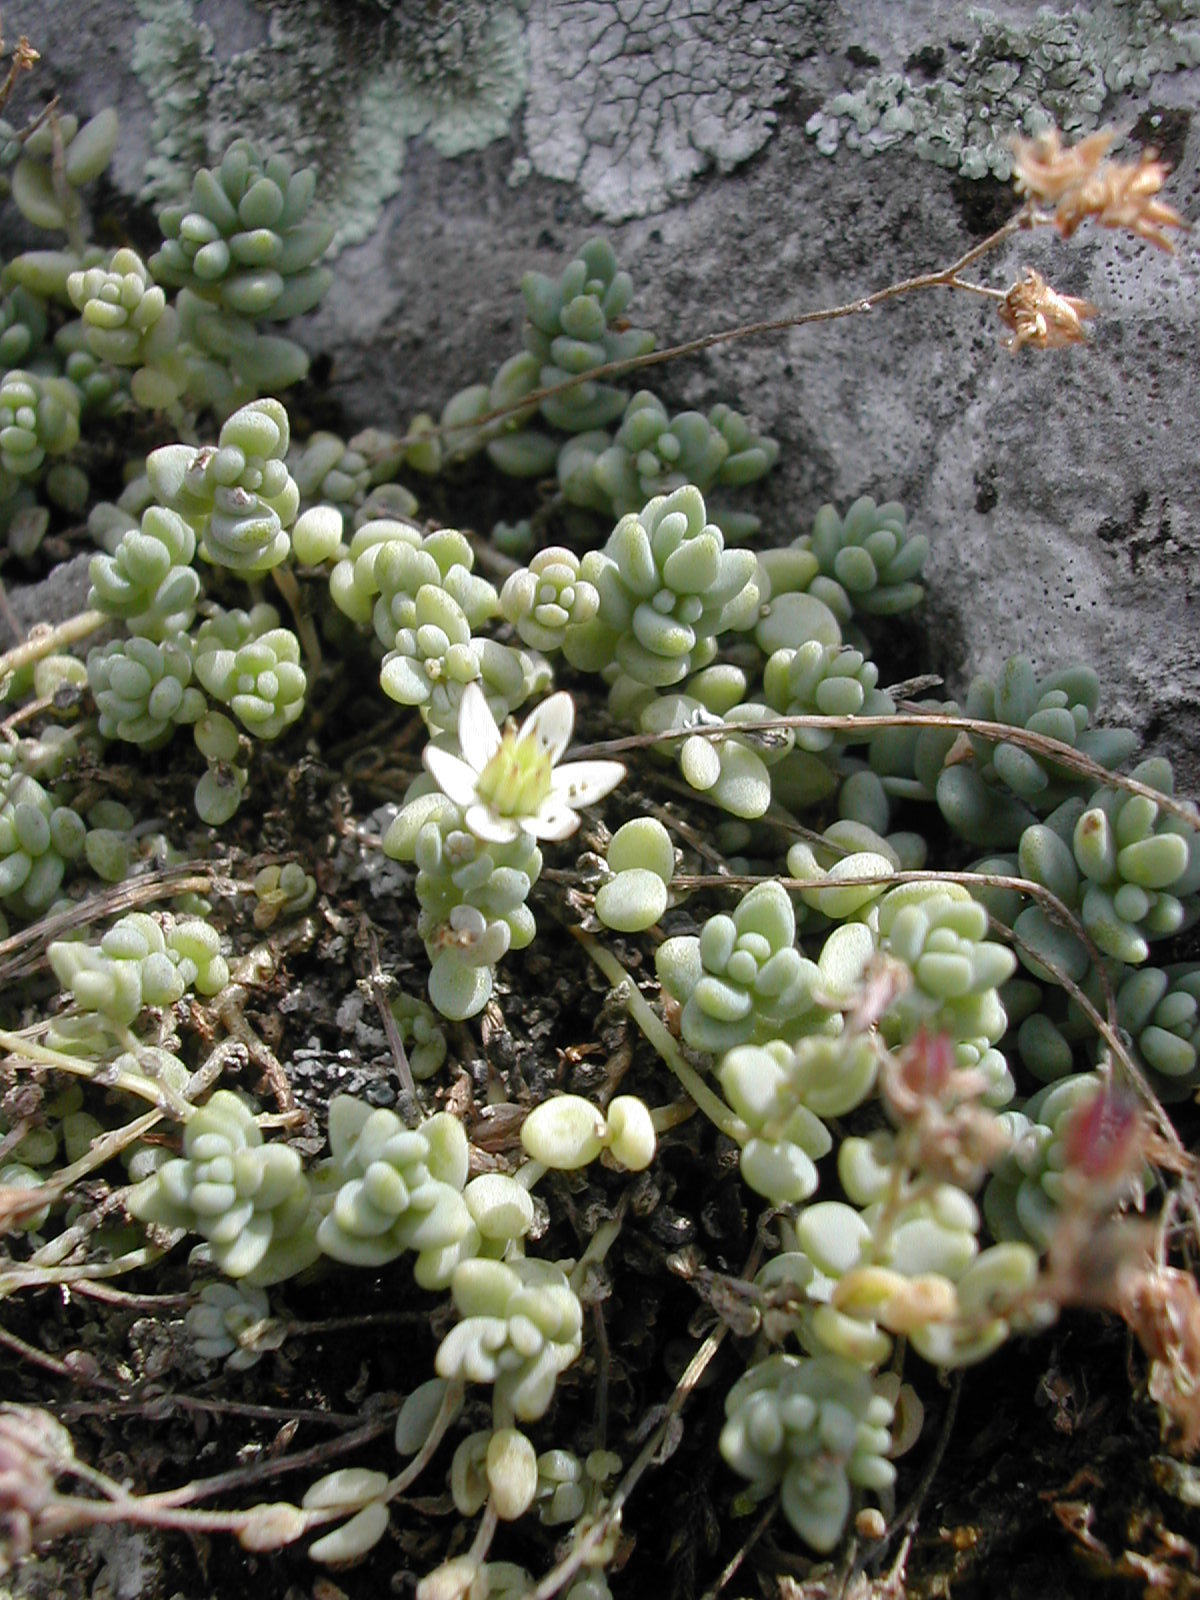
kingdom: Plantae
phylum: Tracheophyta
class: Magnoliopsida
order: Saxifragales
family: Crassulaceae
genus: Sedum
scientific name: Sedum dasyphyllum
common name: Thick-leaf stonecrop
